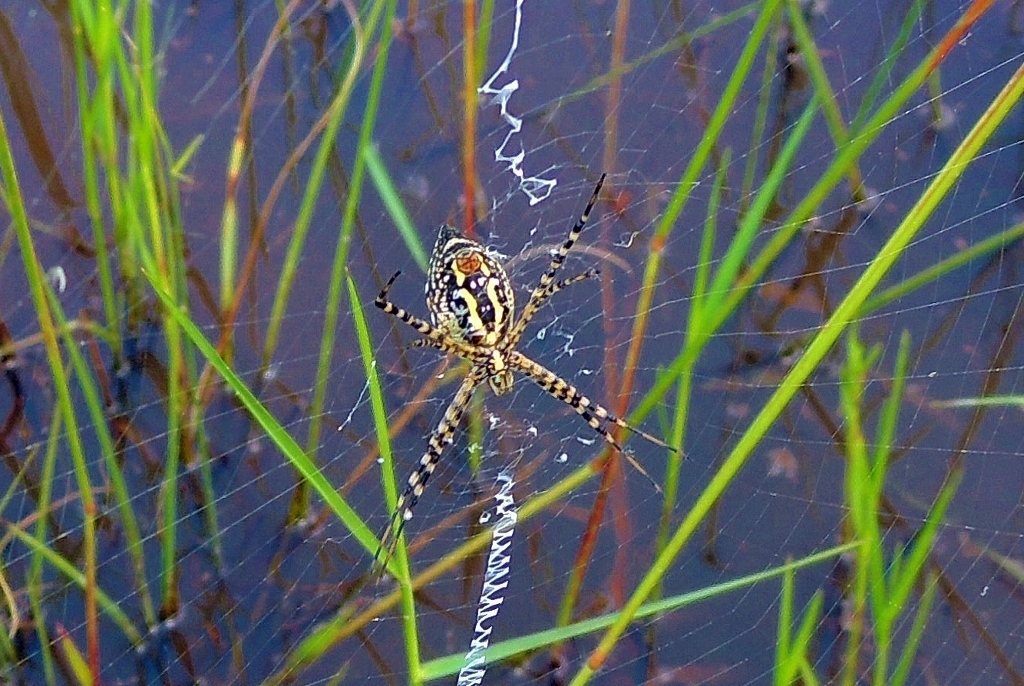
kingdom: Animalia
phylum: Arthropoda
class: Arachnida
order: Araneae
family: Araneidae
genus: Argiope
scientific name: Argiope trifasciata
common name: Banded garden spider
